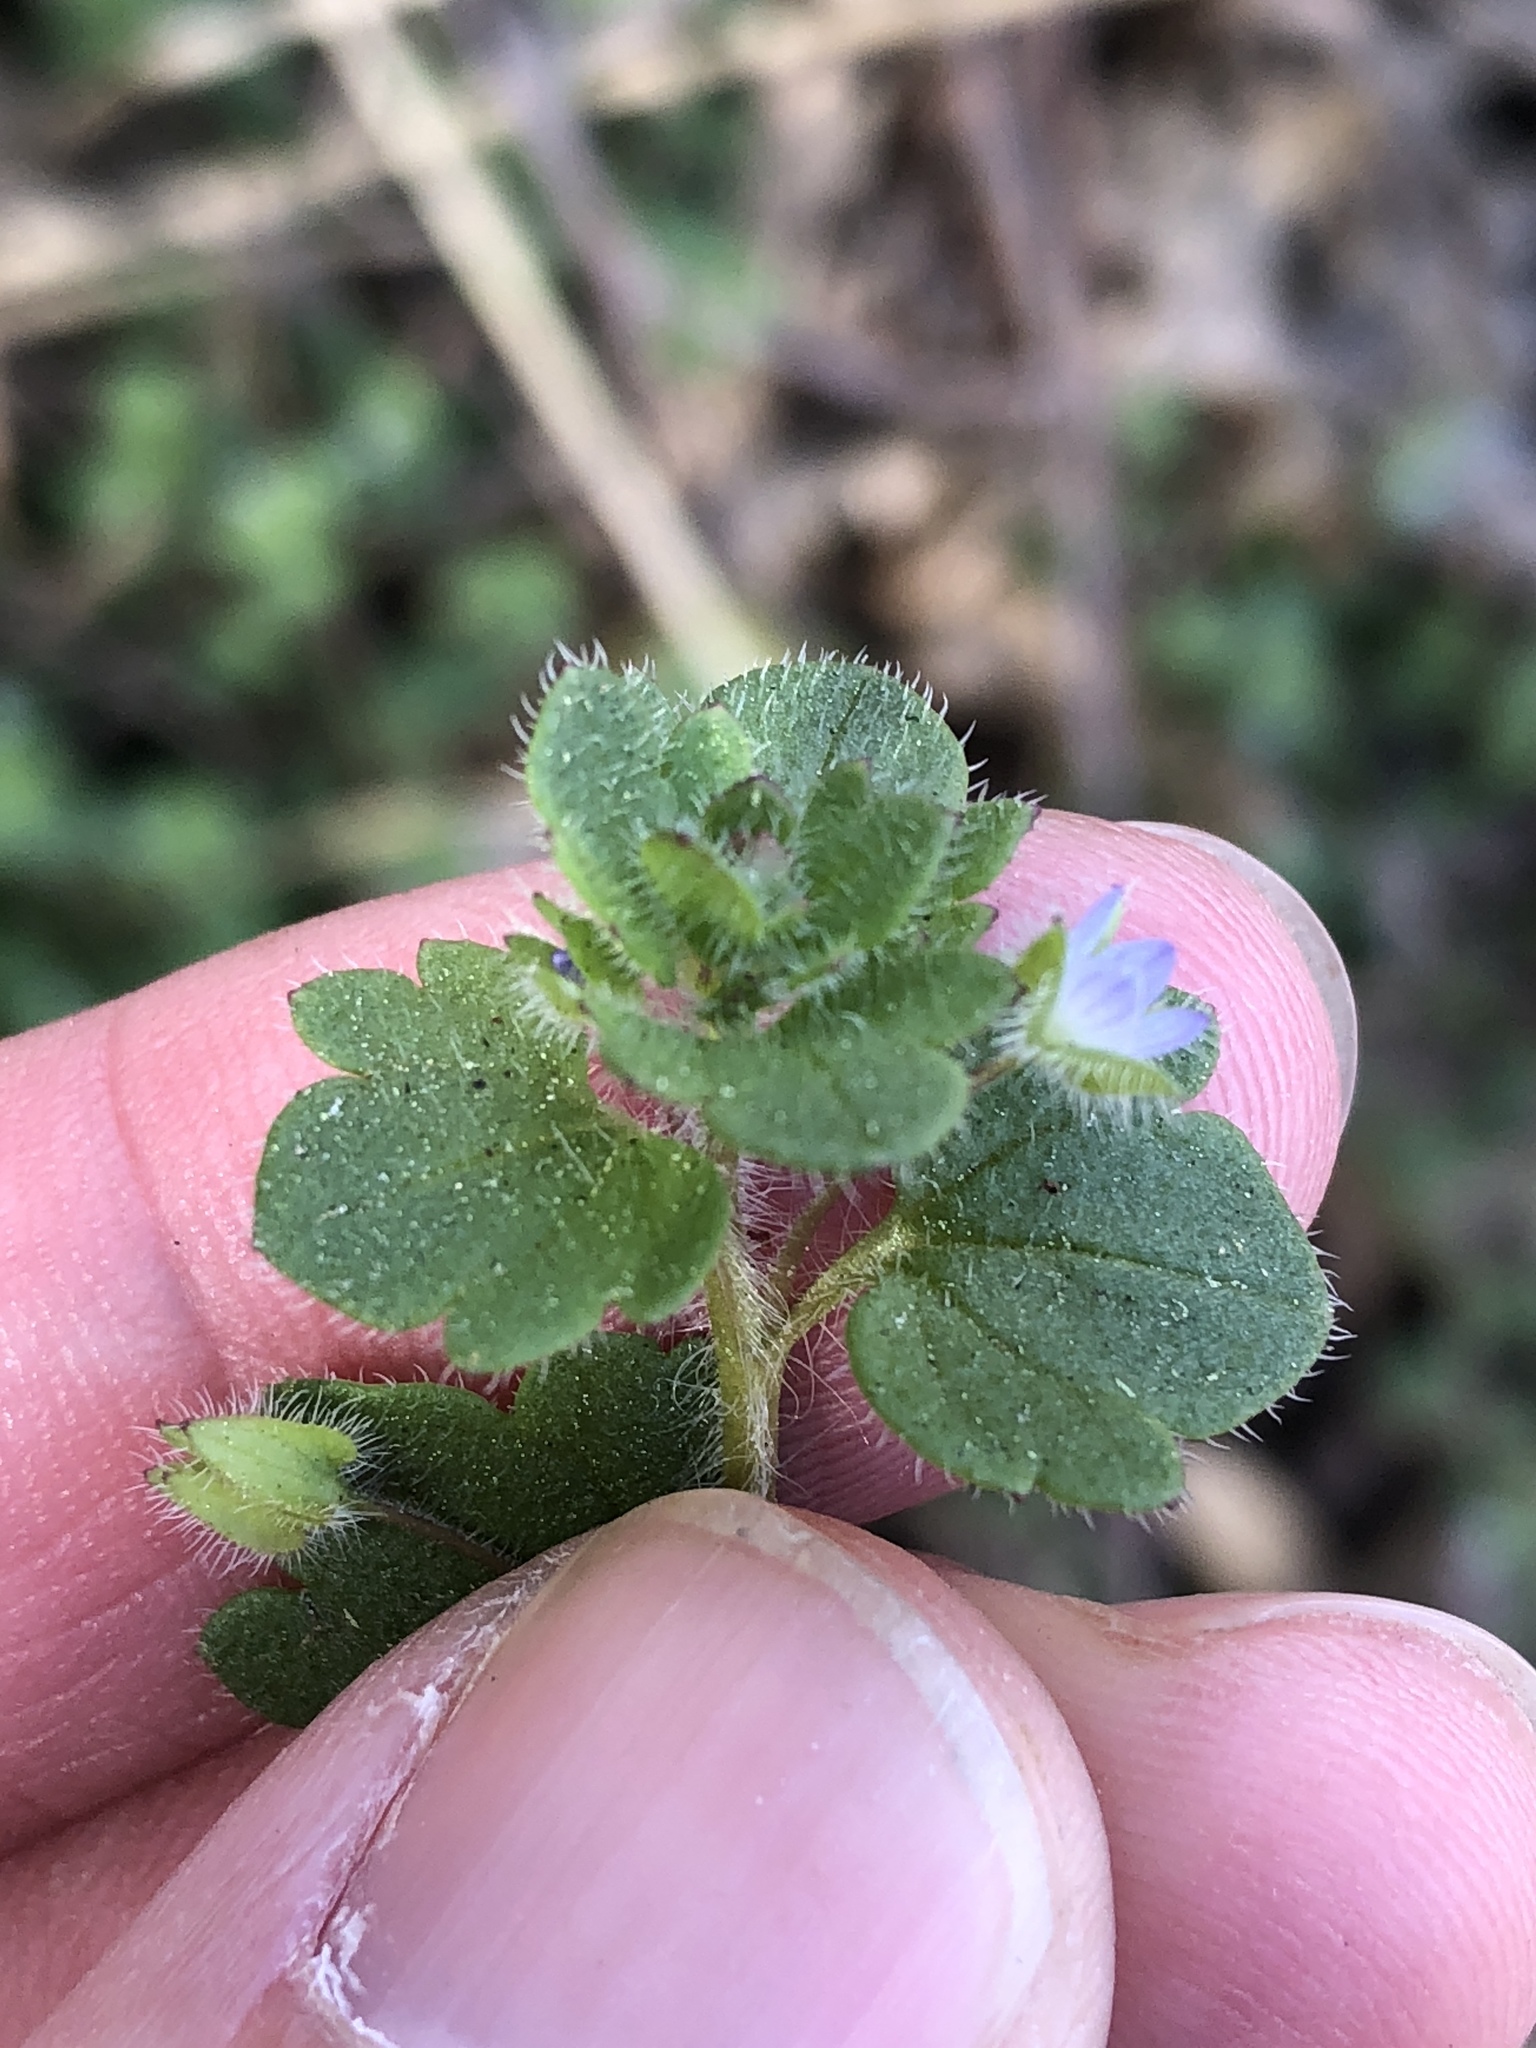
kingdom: Plantae
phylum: Tracheophyta
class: Magnoliopsida
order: Lamiales
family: Plantaginaceae
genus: Veronica
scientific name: Veronica hederifolia
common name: Ivy-leaved speedwell
